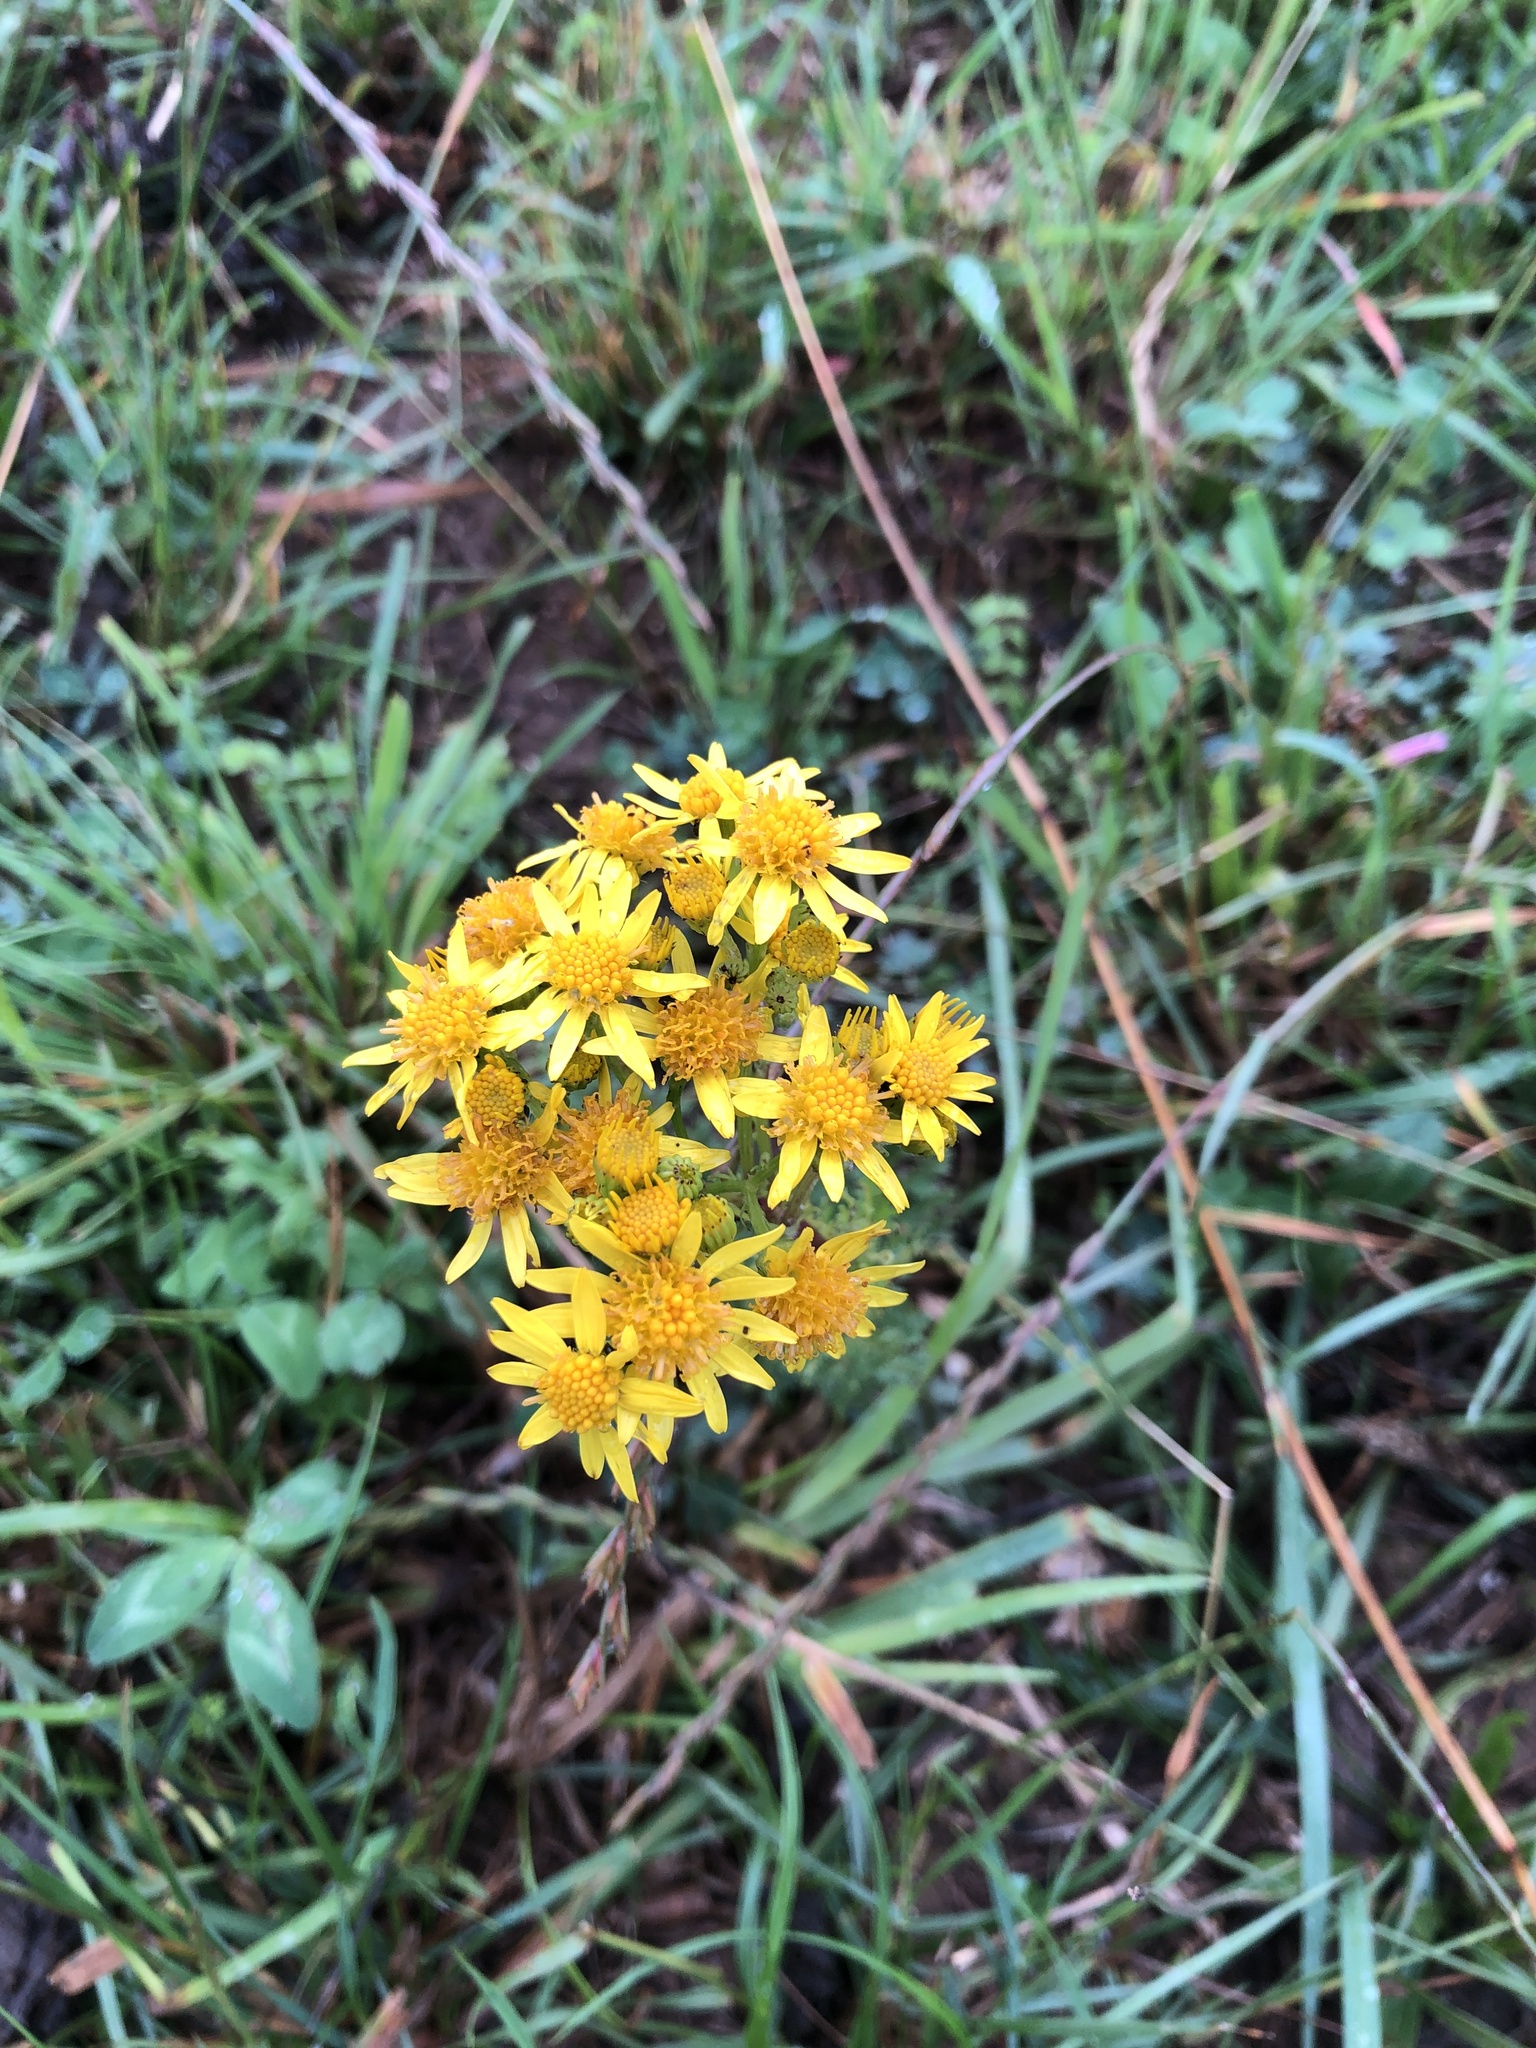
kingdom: Plantae
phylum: Tracheophyta
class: Magnoliopsida
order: Asterales
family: Asteraceae
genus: Jacobaea
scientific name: Jacobaea vulgaris
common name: Stinking willie
